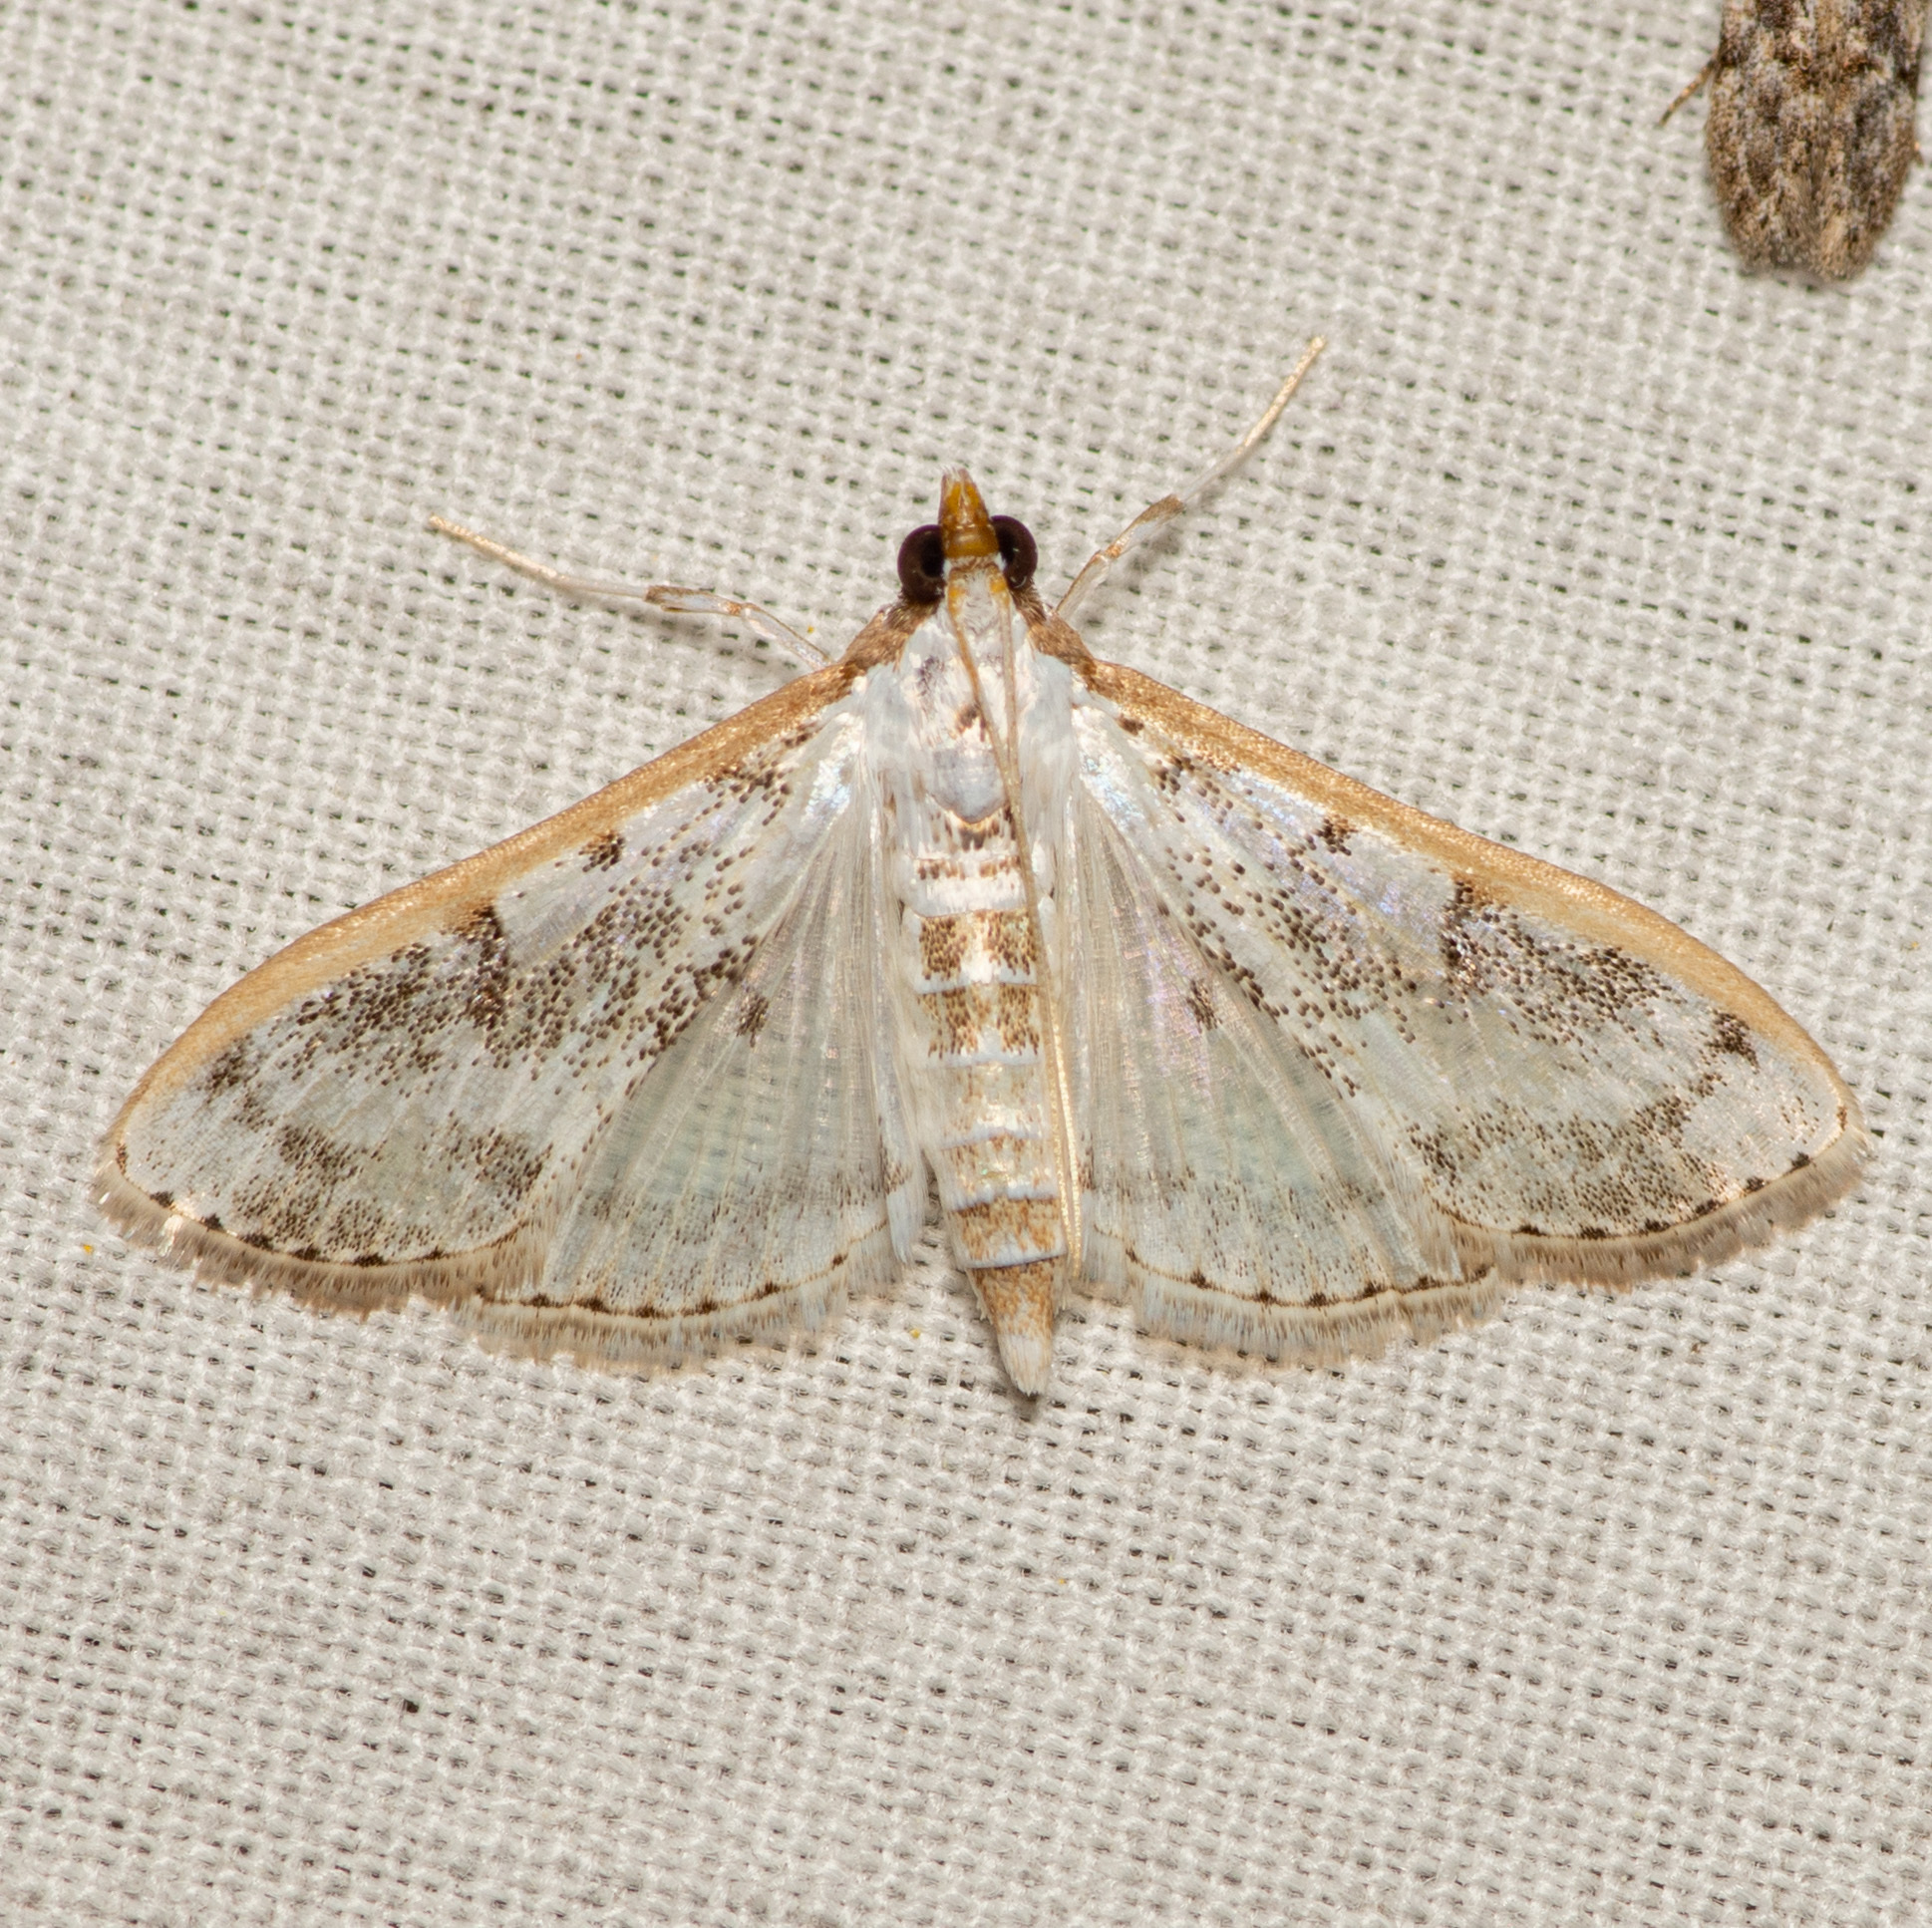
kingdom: Animalia
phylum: Arthropoda
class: Insecta
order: Lepidoptera
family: Crambidae
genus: Palpita
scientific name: Palpita gracilalis
